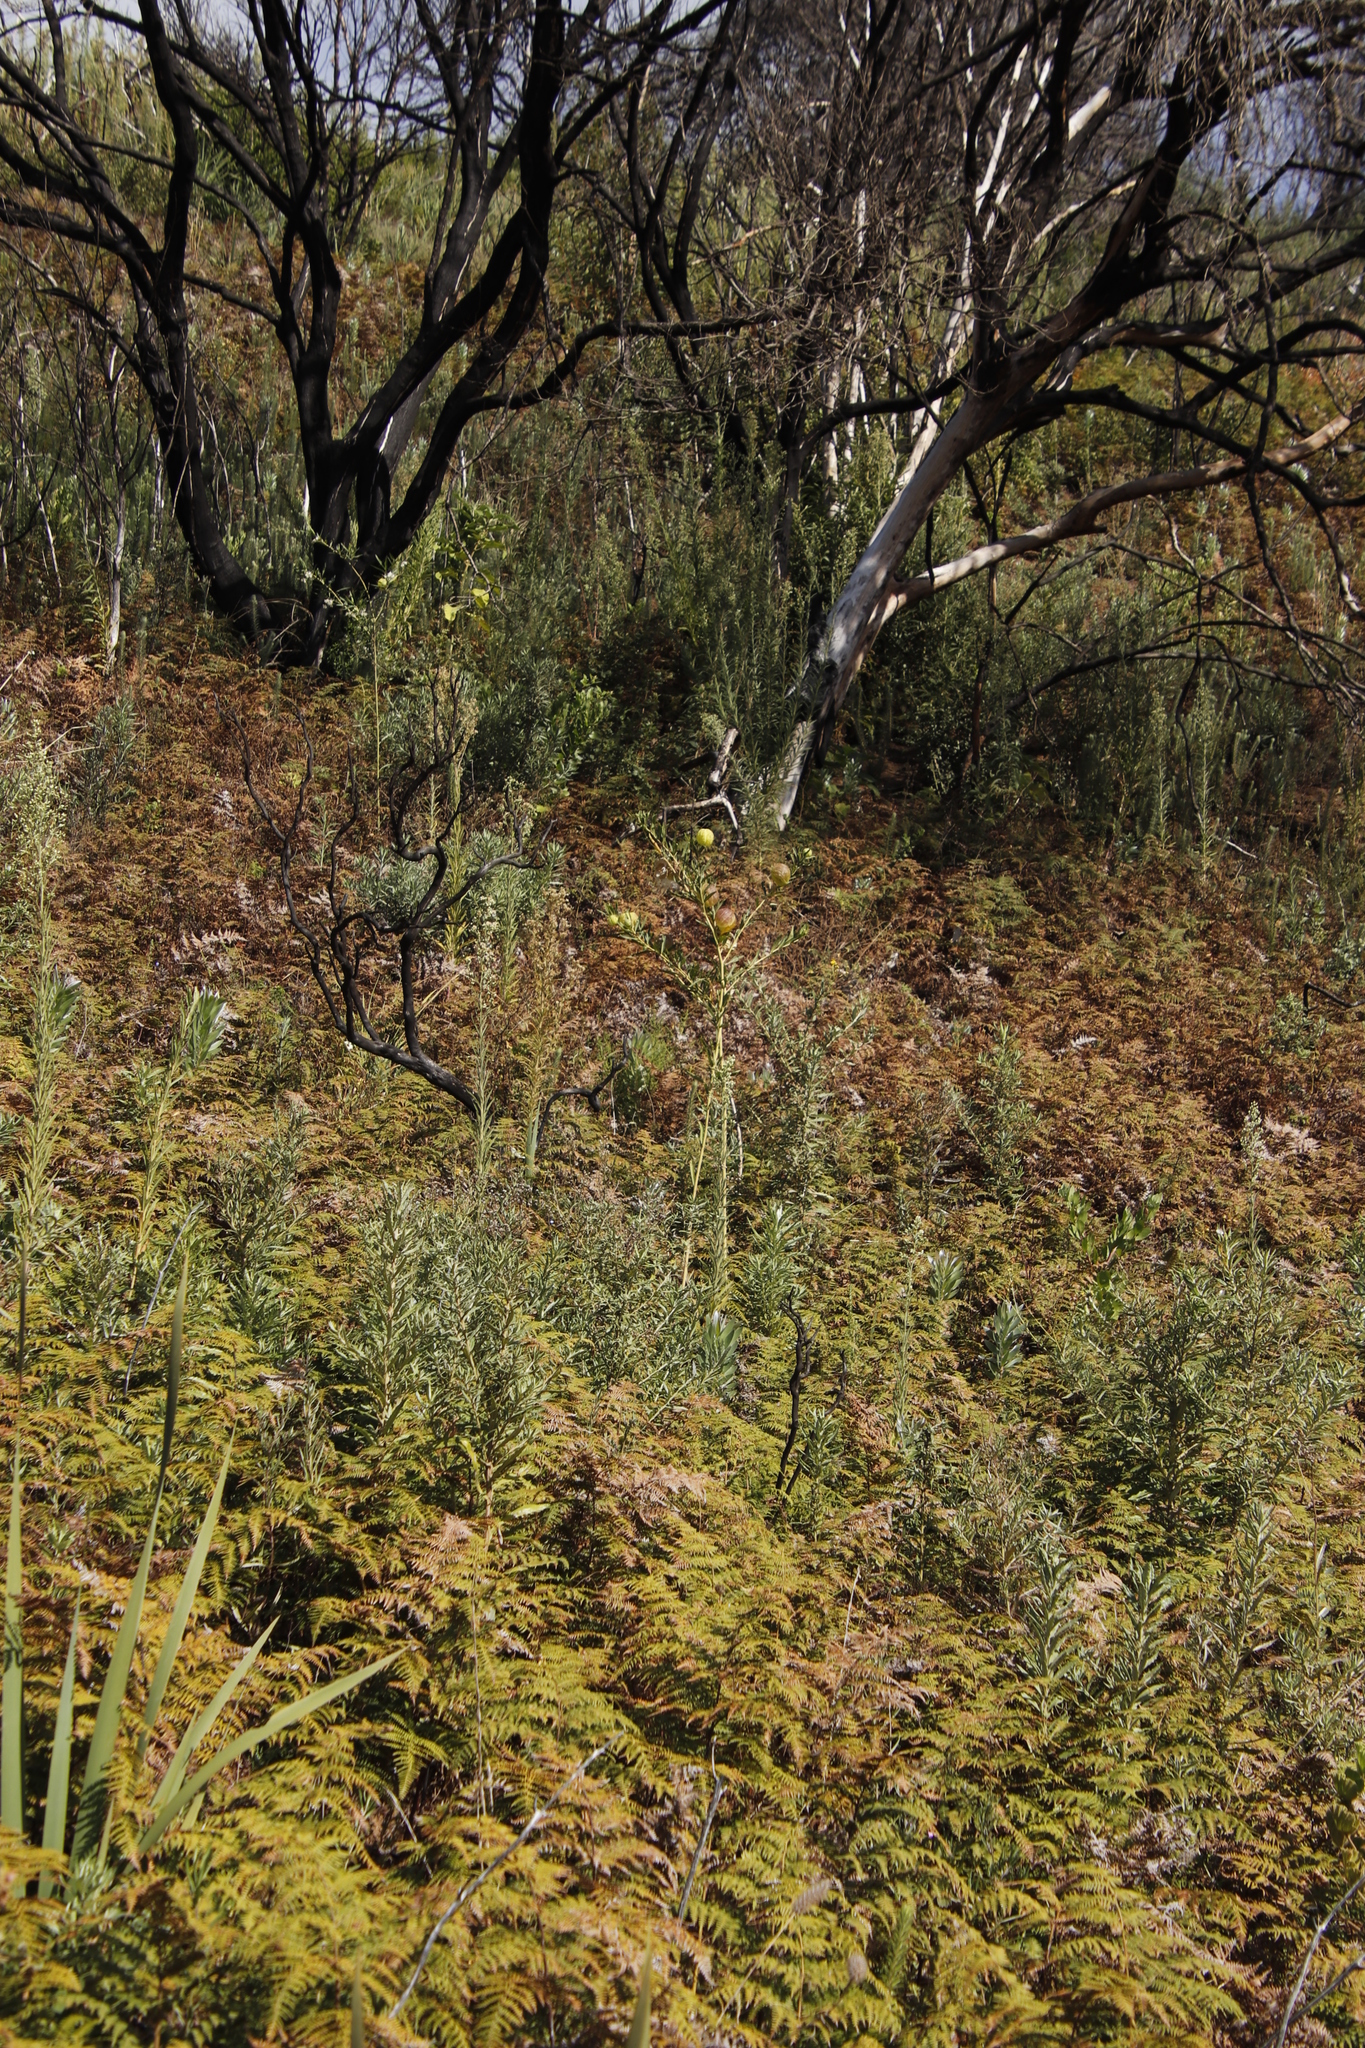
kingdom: Plantae
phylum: Tracheophyta
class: Magnoliopsida
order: Gentianales
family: Apocynaceae
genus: Gomphocarpus
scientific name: Gomphocarpus physocarpus
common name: Balloon cotton bush
